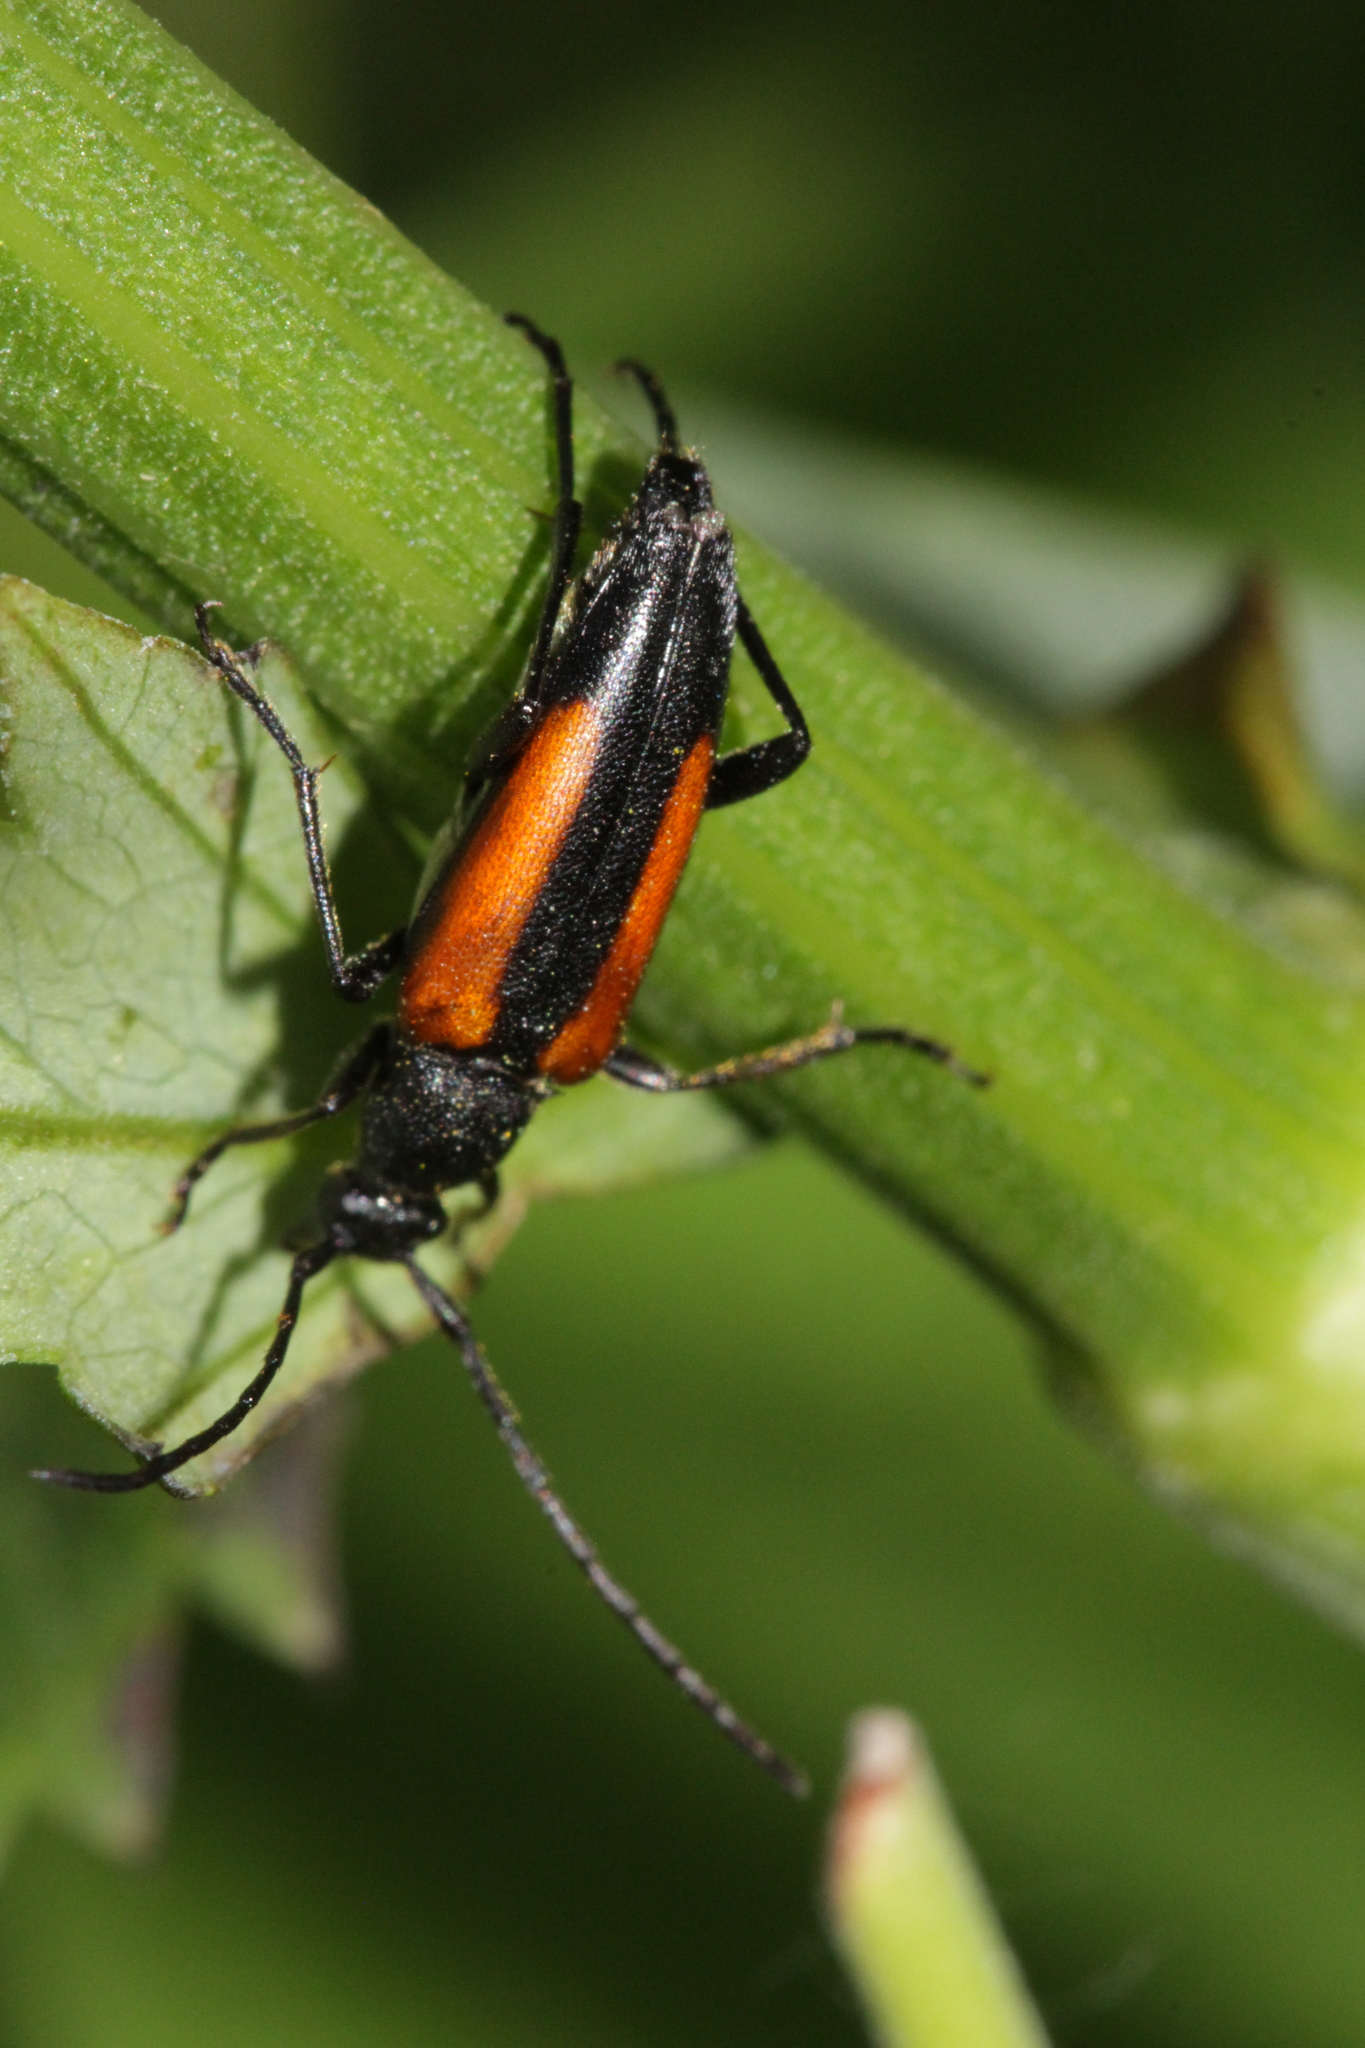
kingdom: Animalia
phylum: Arthropoda
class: Insecta
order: Coleoptera
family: Cerambycidae
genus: Stenurella
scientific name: Stenurella melanura
